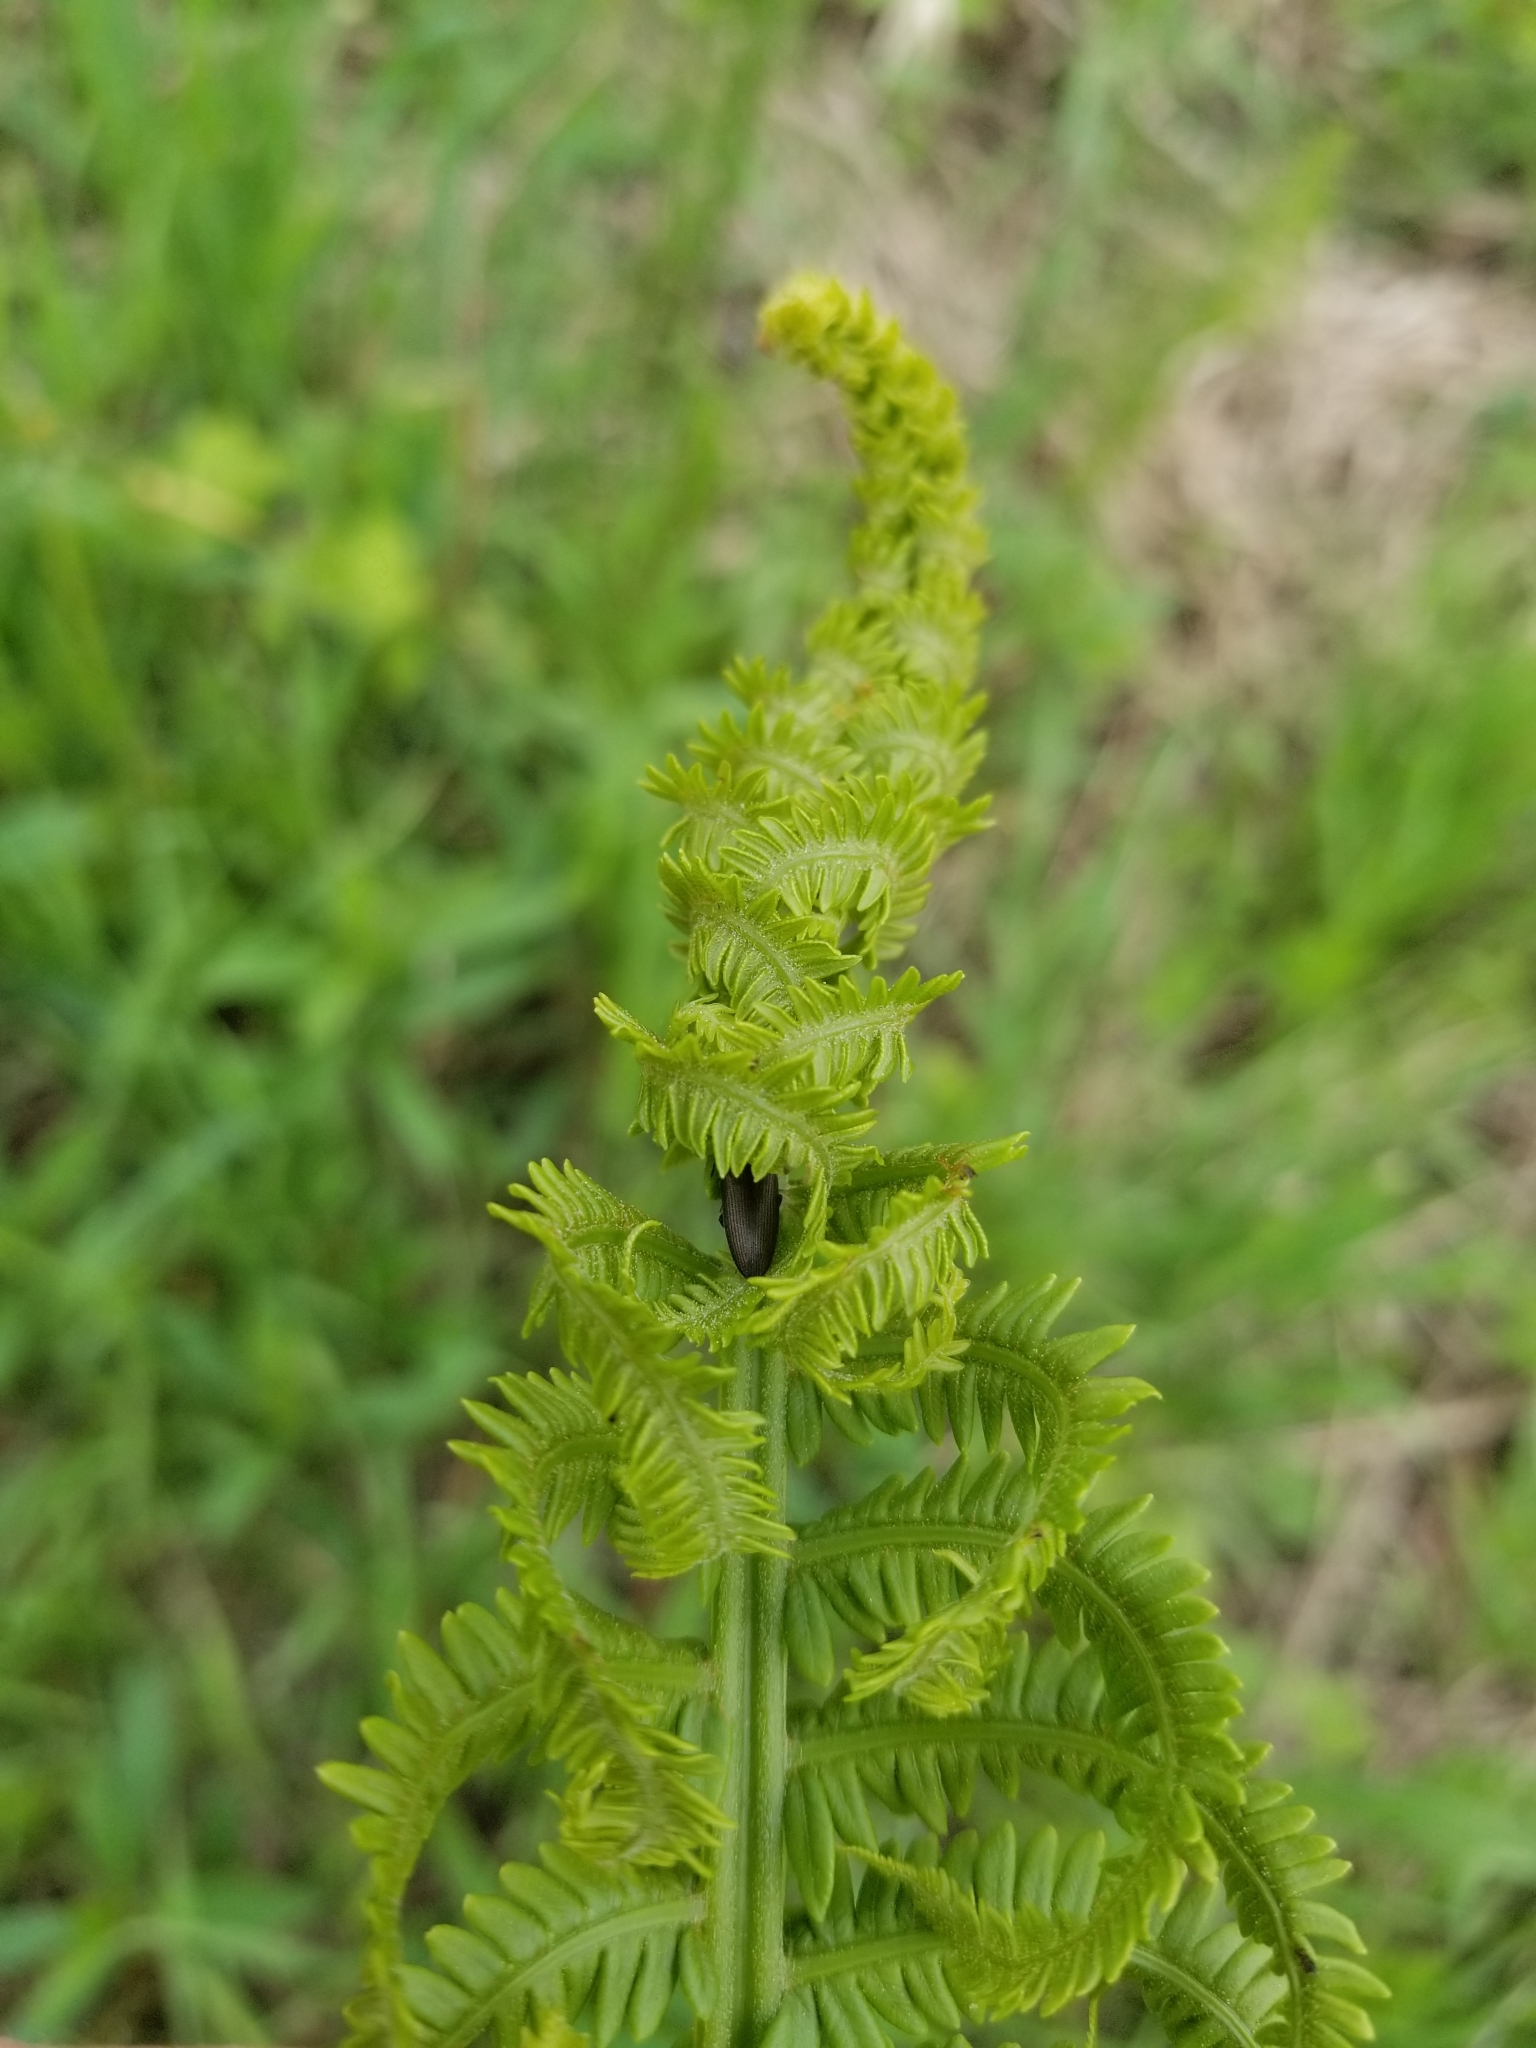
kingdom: Plantae
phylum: Tracheophyta
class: Polypodiopsida
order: Polypodiales
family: Onocleaceae
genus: Matteuccia
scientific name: Matteuccia struthiopteris
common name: Ostrich fern
